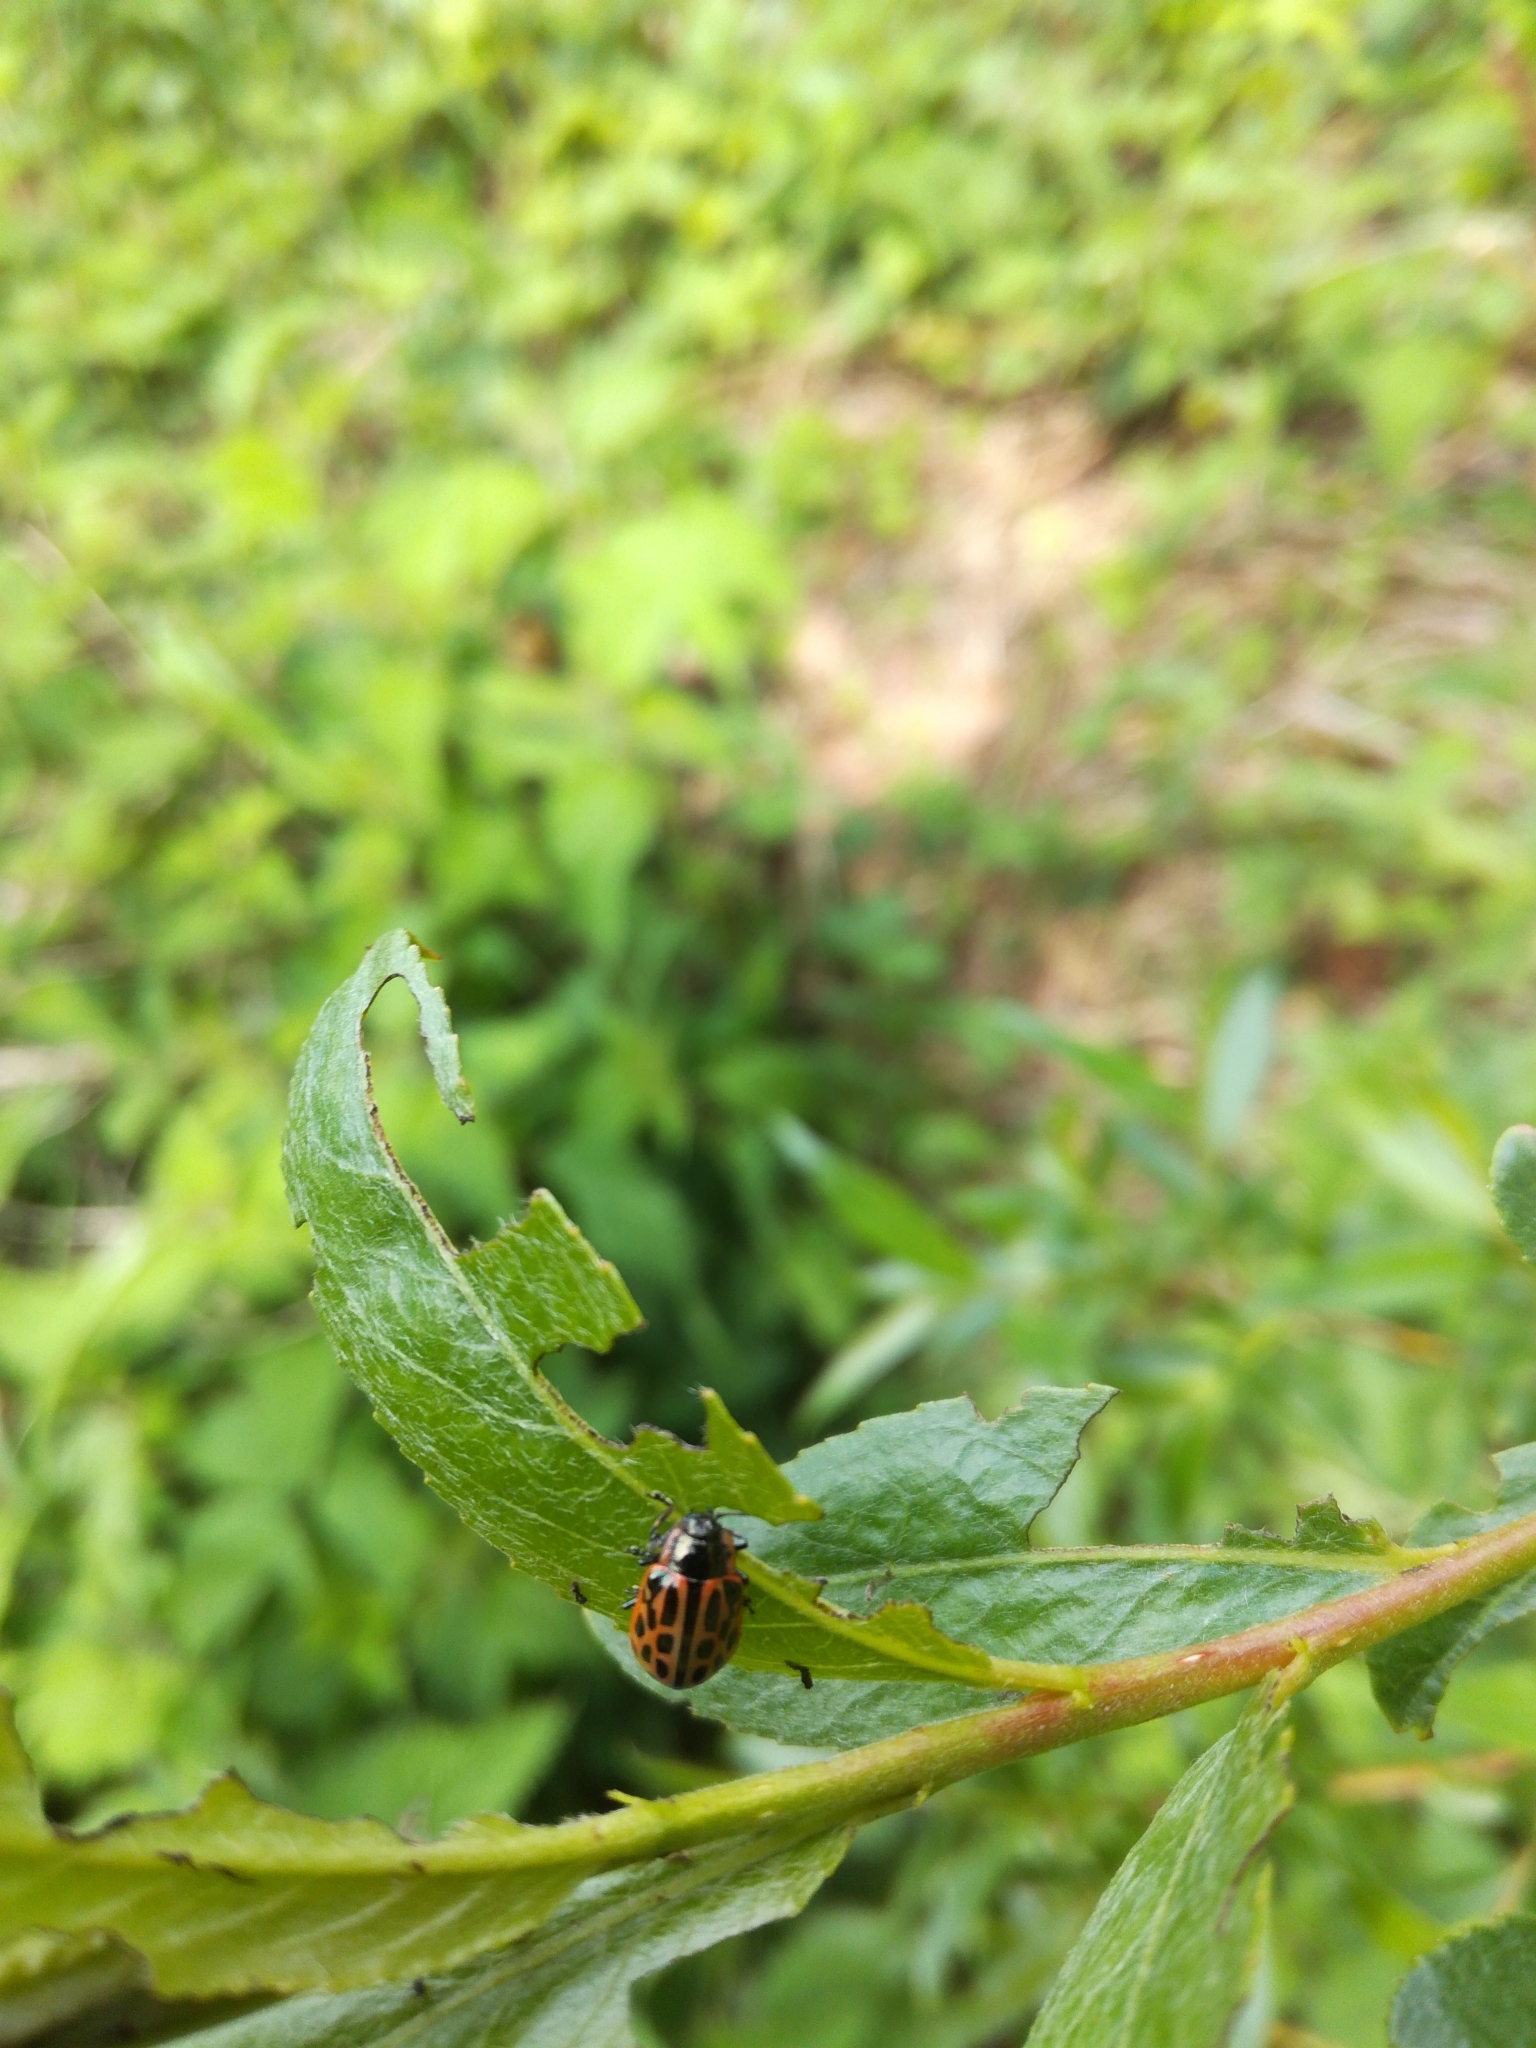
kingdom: Animalia
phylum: Arthropoda
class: Insecta
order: Coleoptera
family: Chrysomelidae
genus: Chrysomela
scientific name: Chrysomela vigintipunctata
